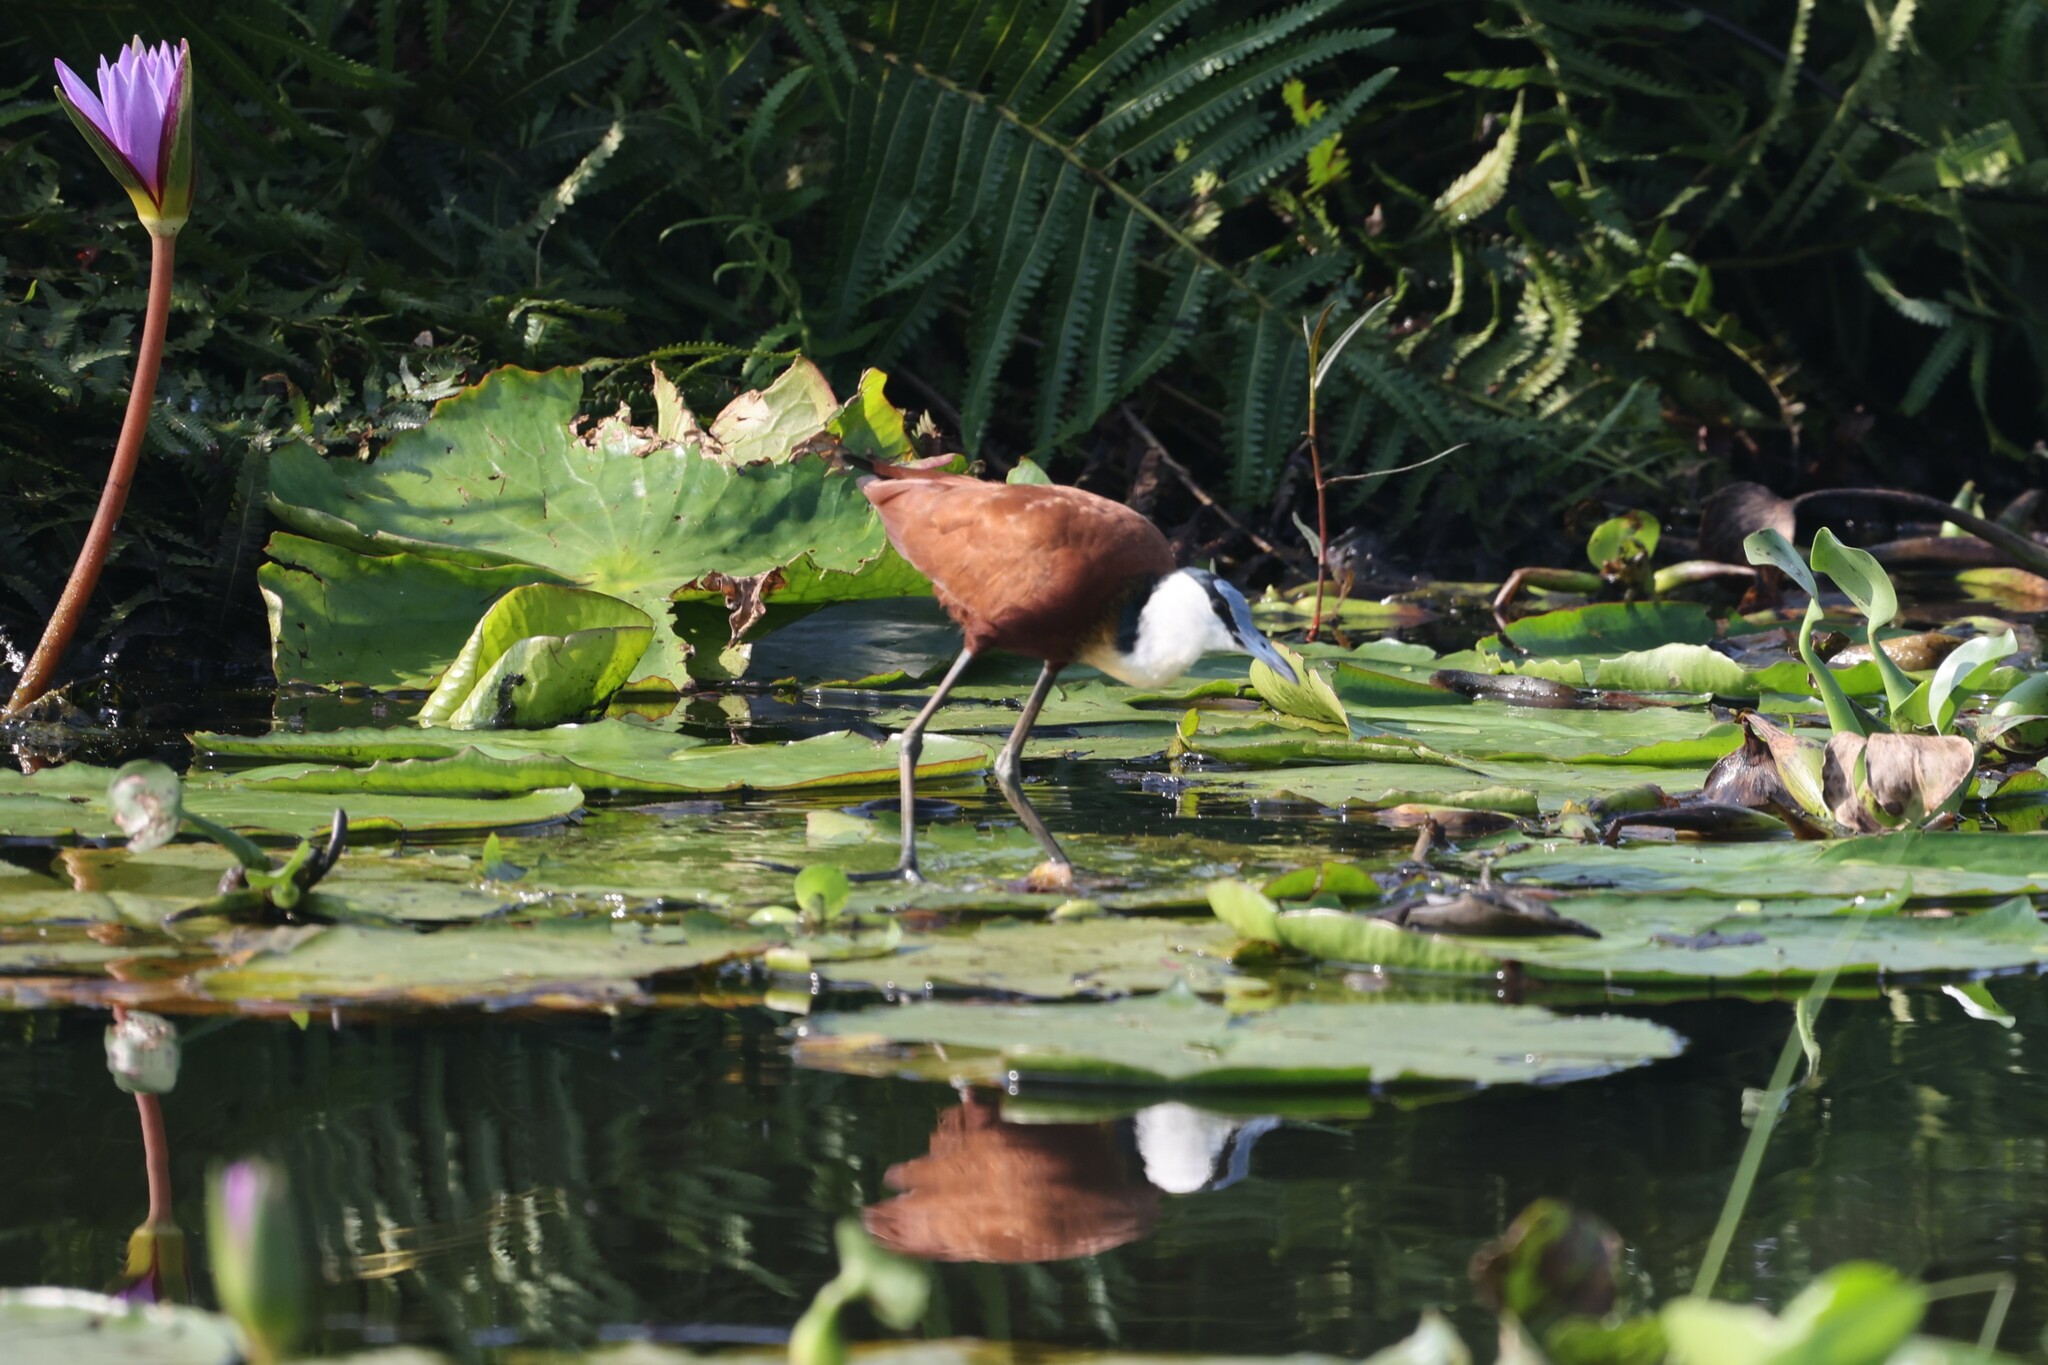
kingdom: Animalia
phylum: Chordata
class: Aves
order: Charadriiformes
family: Jacanidae
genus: Actophilornis
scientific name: Actophilornis africanus
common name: African jacana
